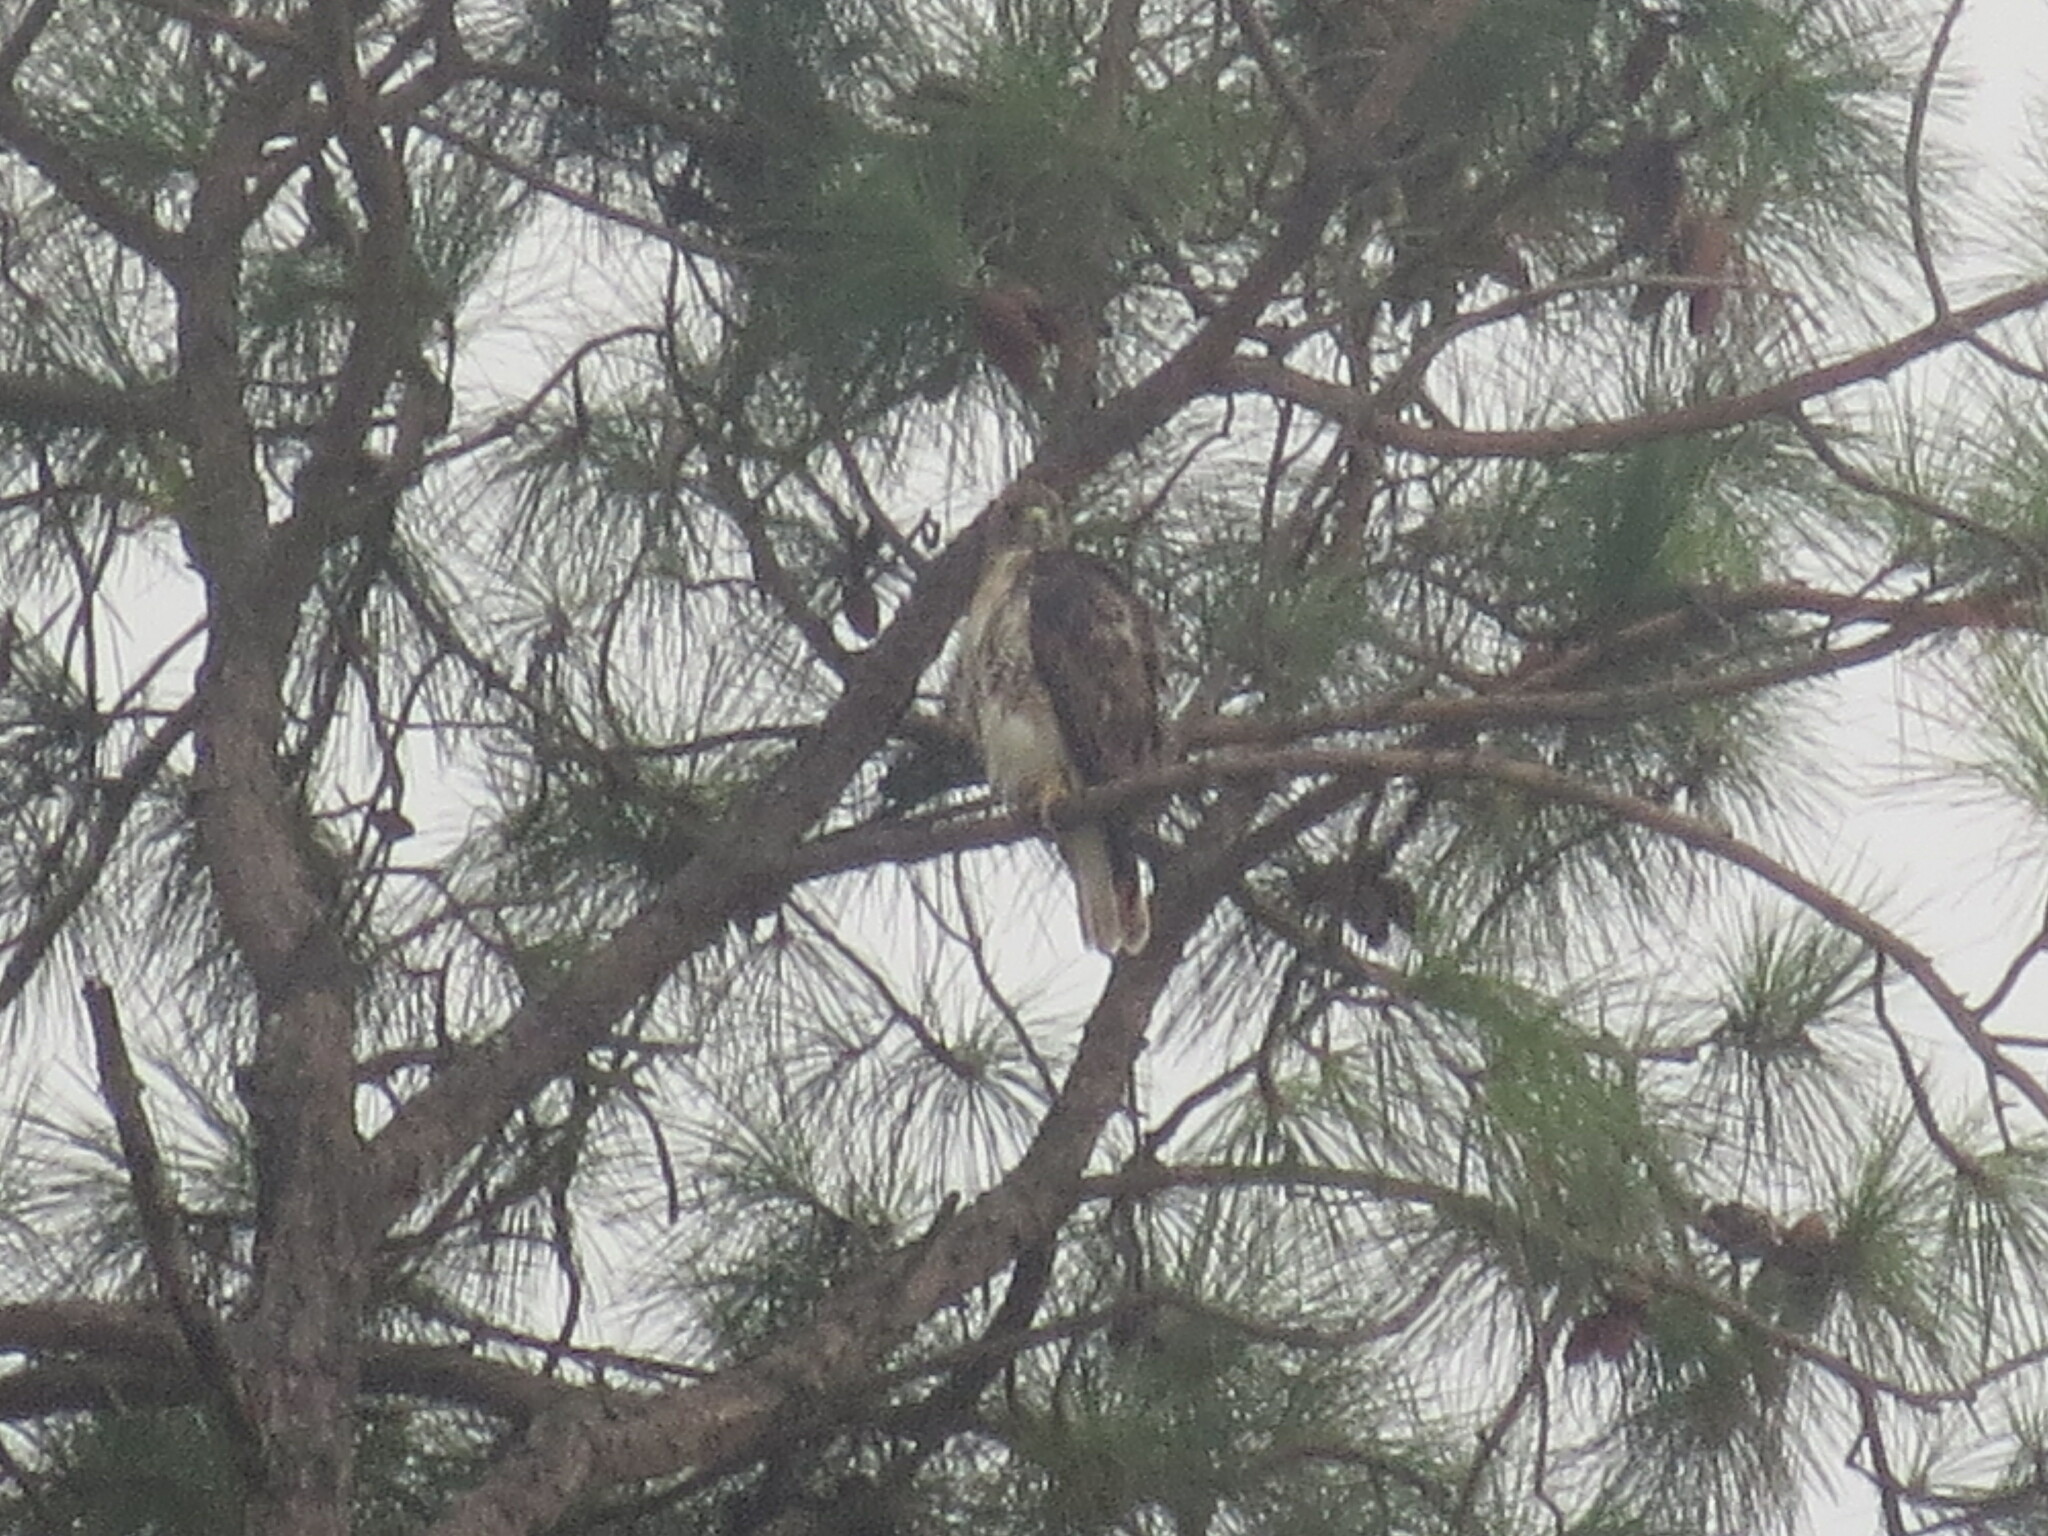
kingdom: Animalia
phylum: Chordata
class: Aves
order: Accipitriformes
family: Accipitridae
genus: Buteo
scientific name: Buteo jamaicensis
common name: Red-tailed hawk
